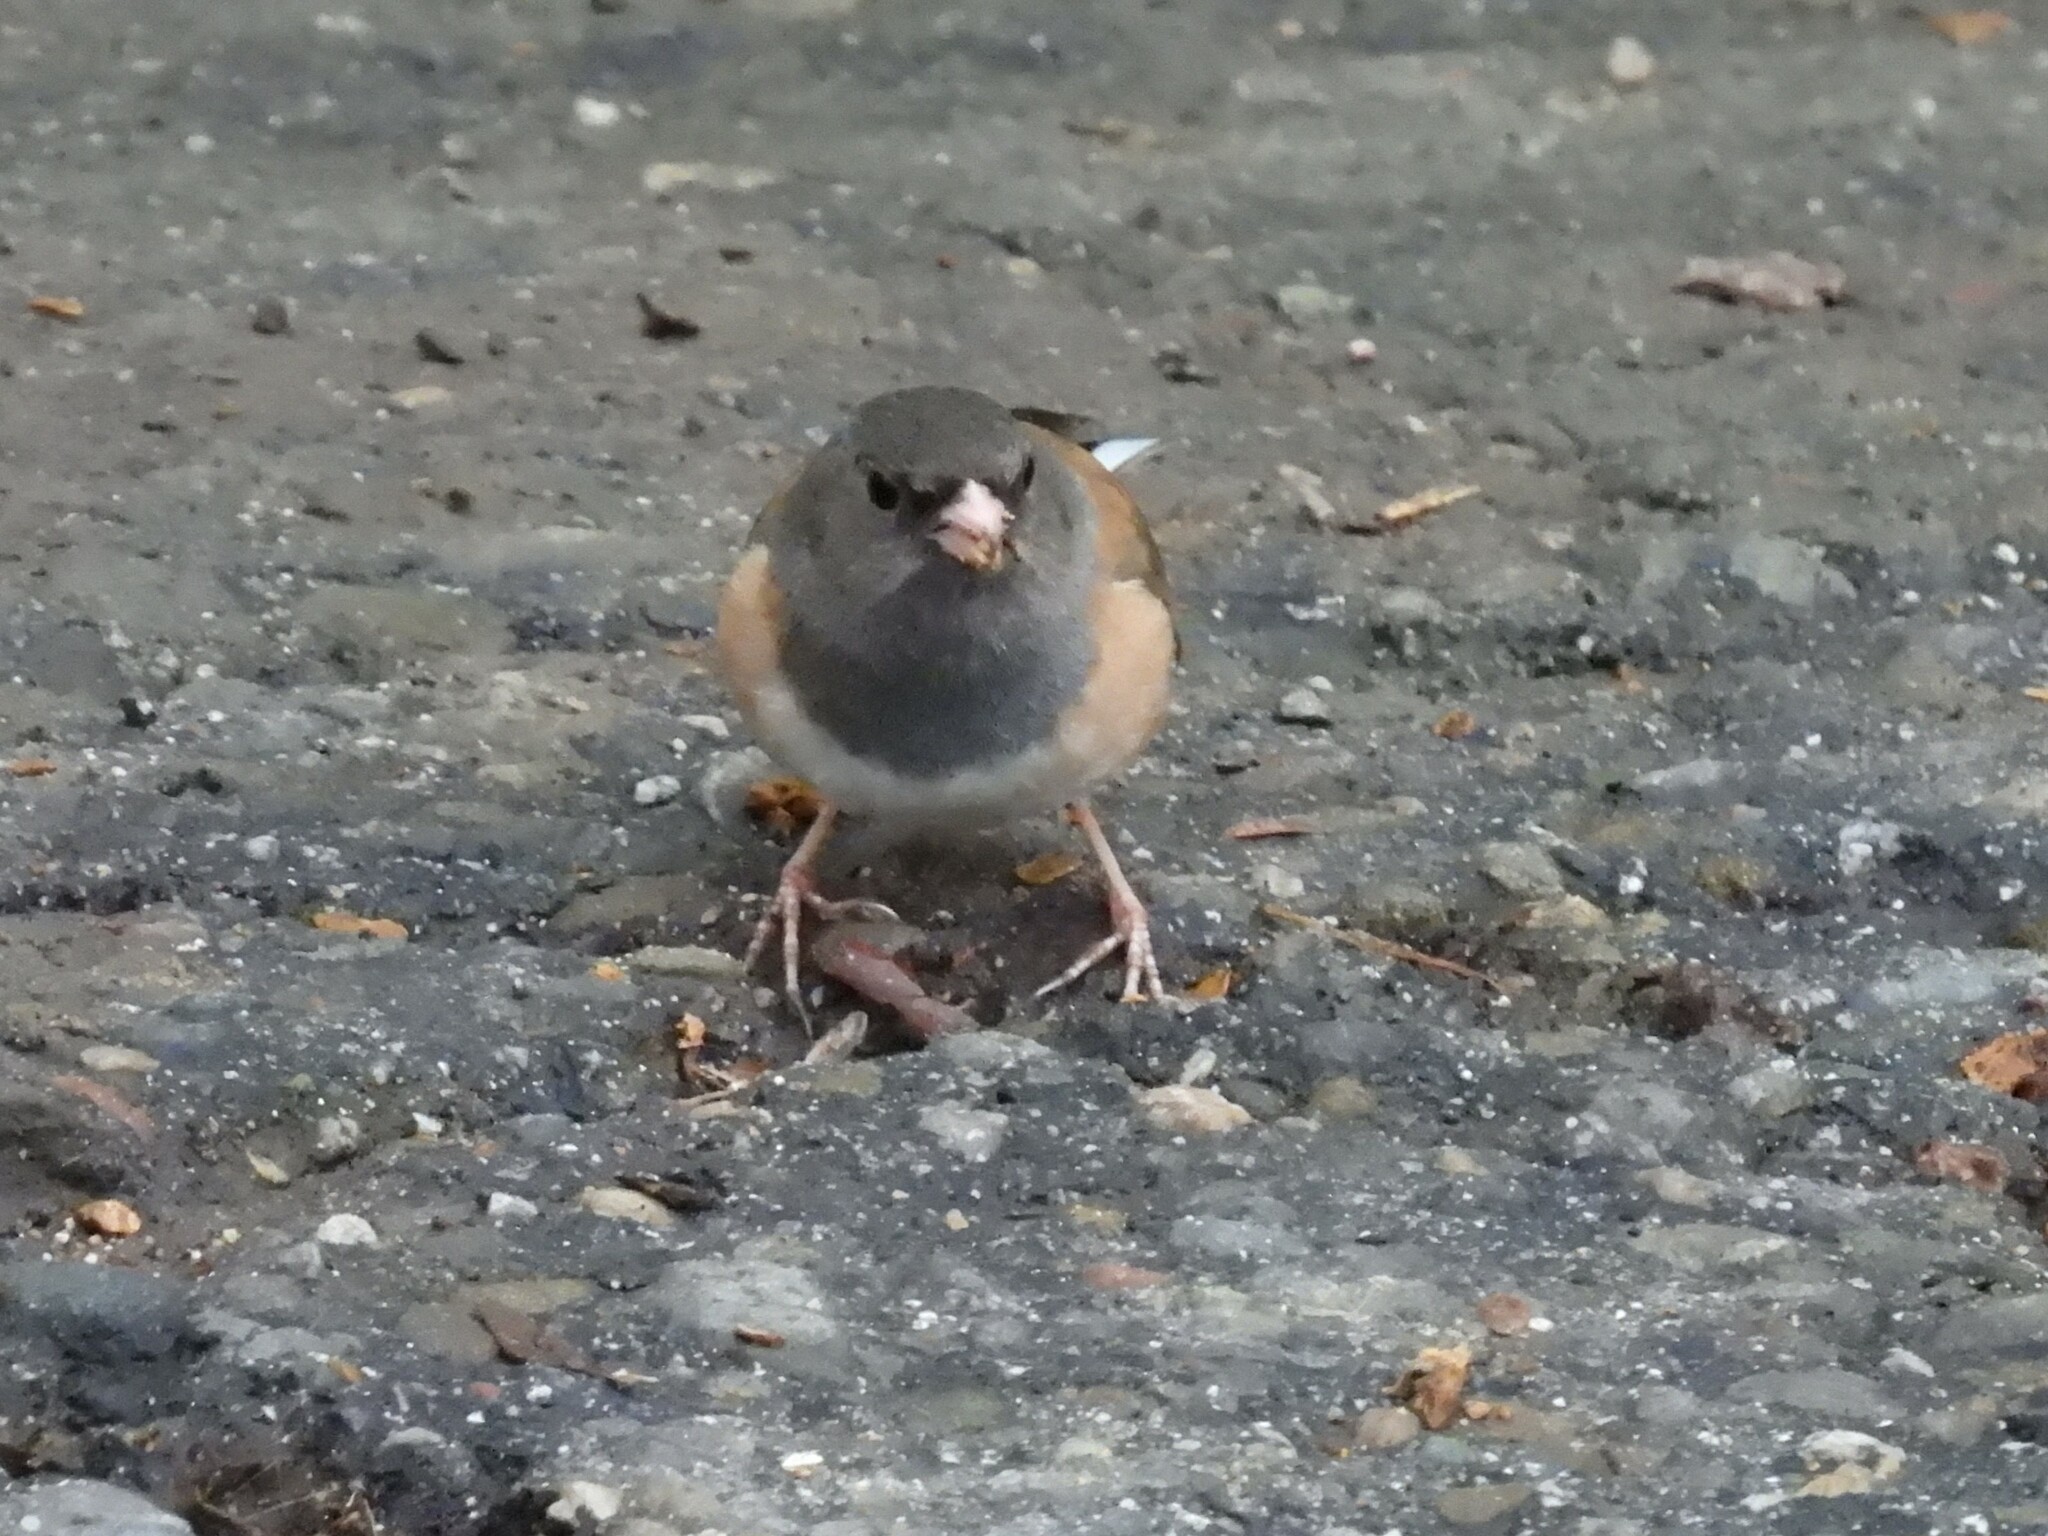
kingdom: Animalia
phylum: Chordata
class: Aves
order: Passeriformes
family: Passerellidae
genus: Junco
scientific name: Junco hyemalis
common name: Dark-eyed junco
